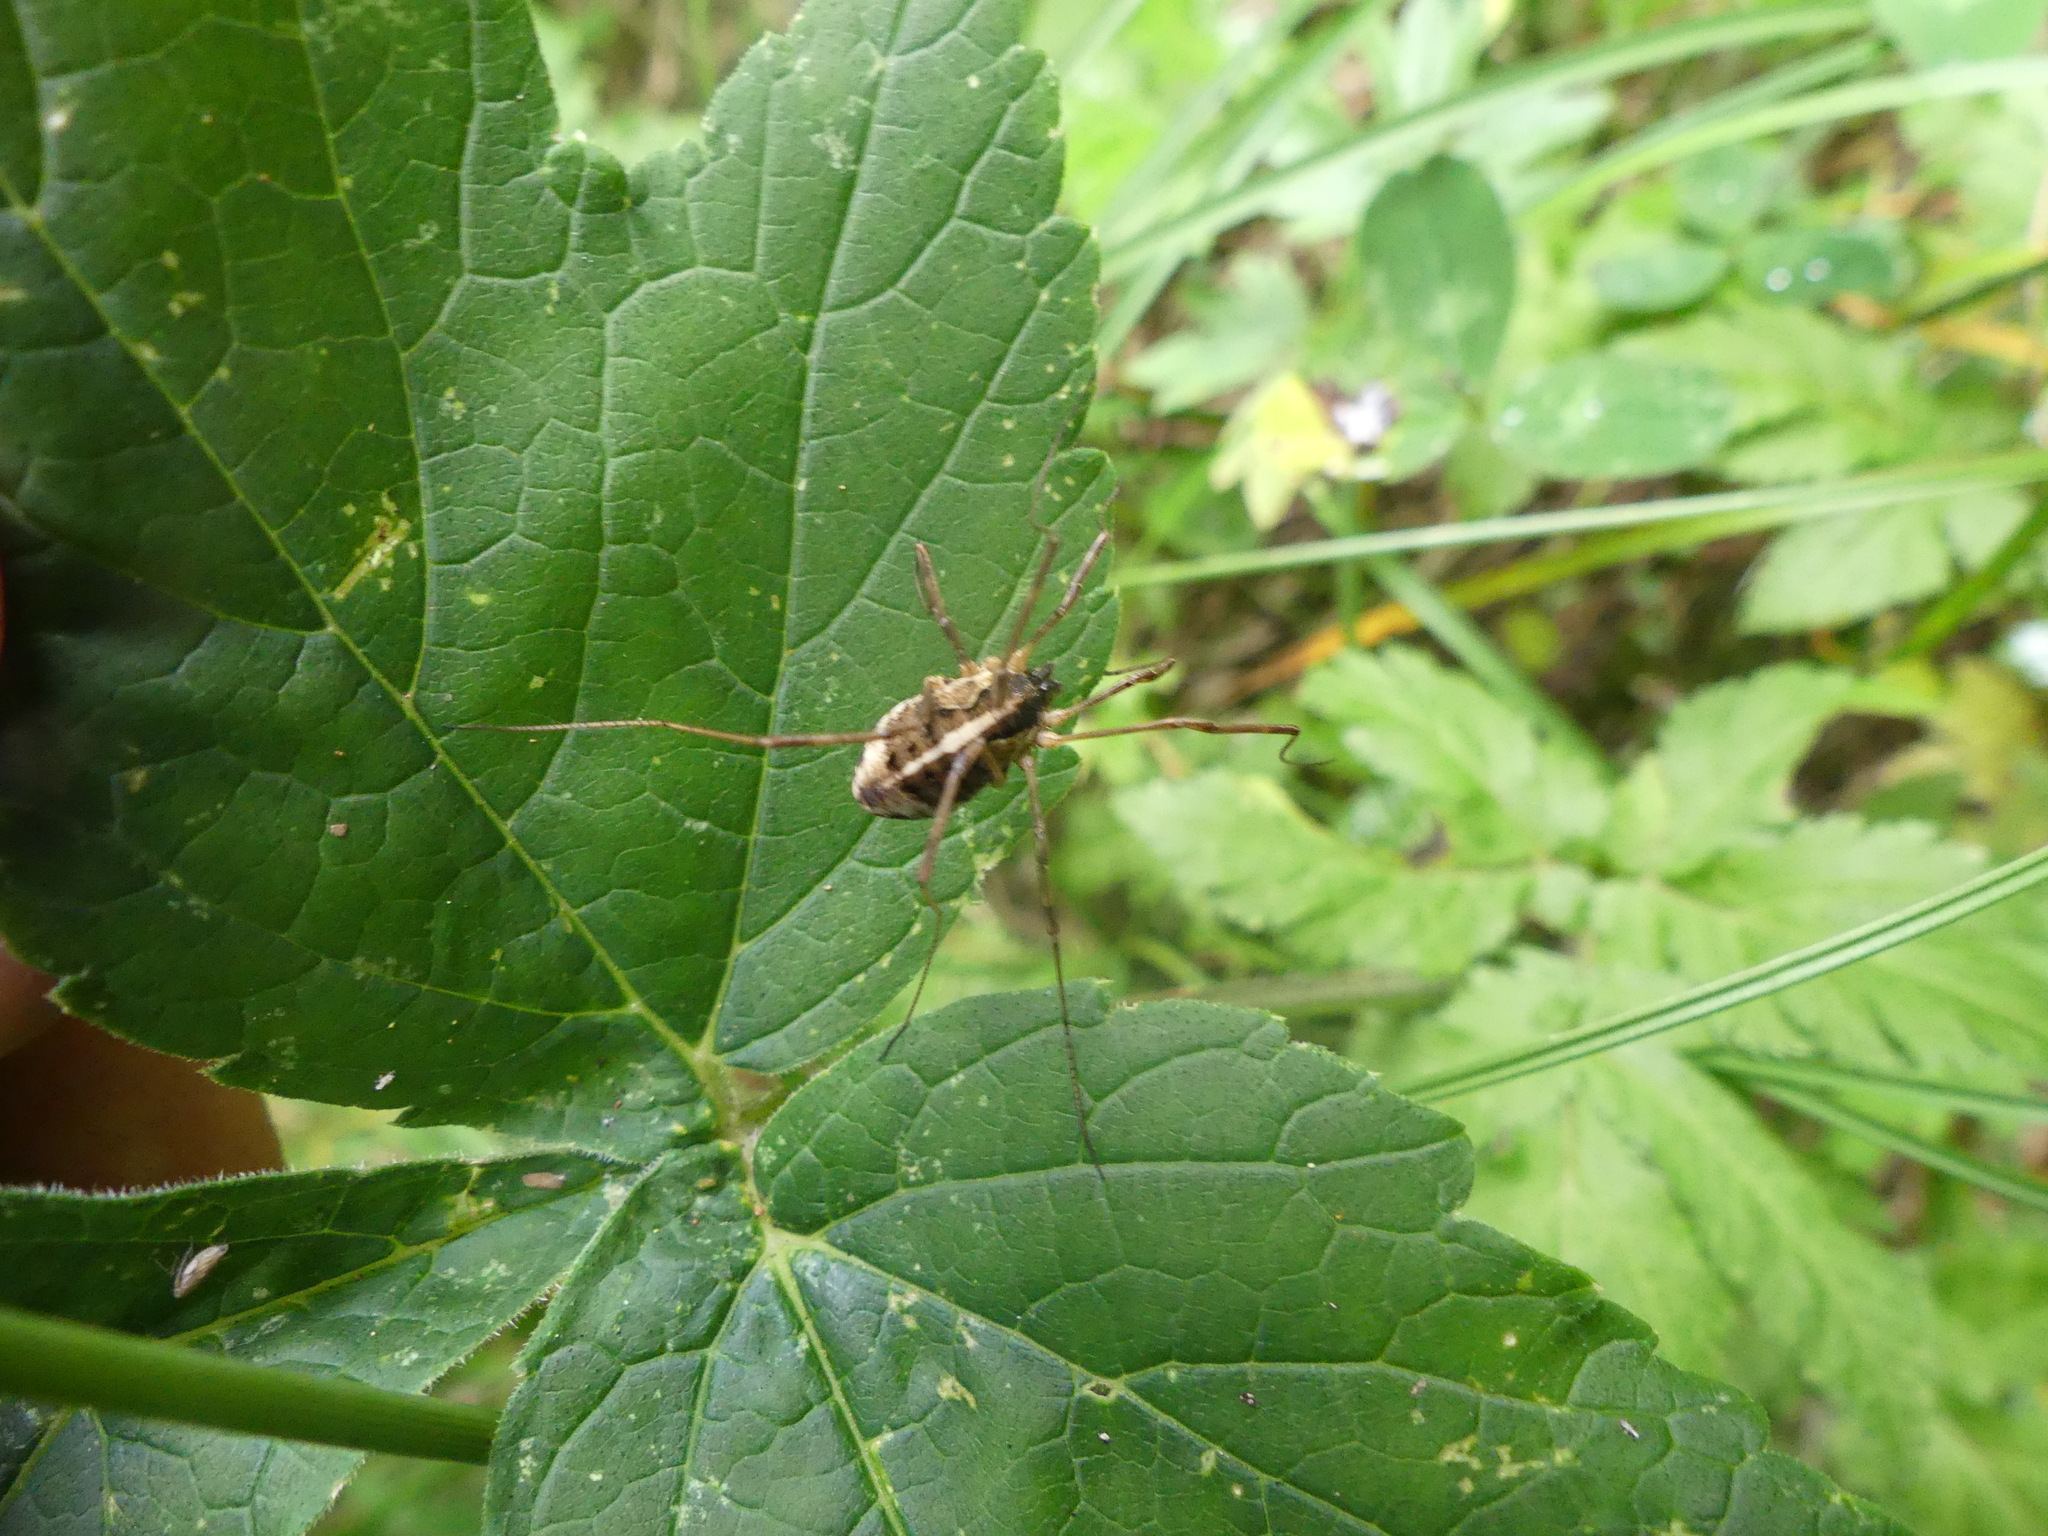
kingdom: Animalia
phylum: Arthropoda
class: Arachnida
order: Opiliones
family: Phalangiidae
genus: Mitopus
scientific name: Mitopus morio
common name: Saddleback harvestman
